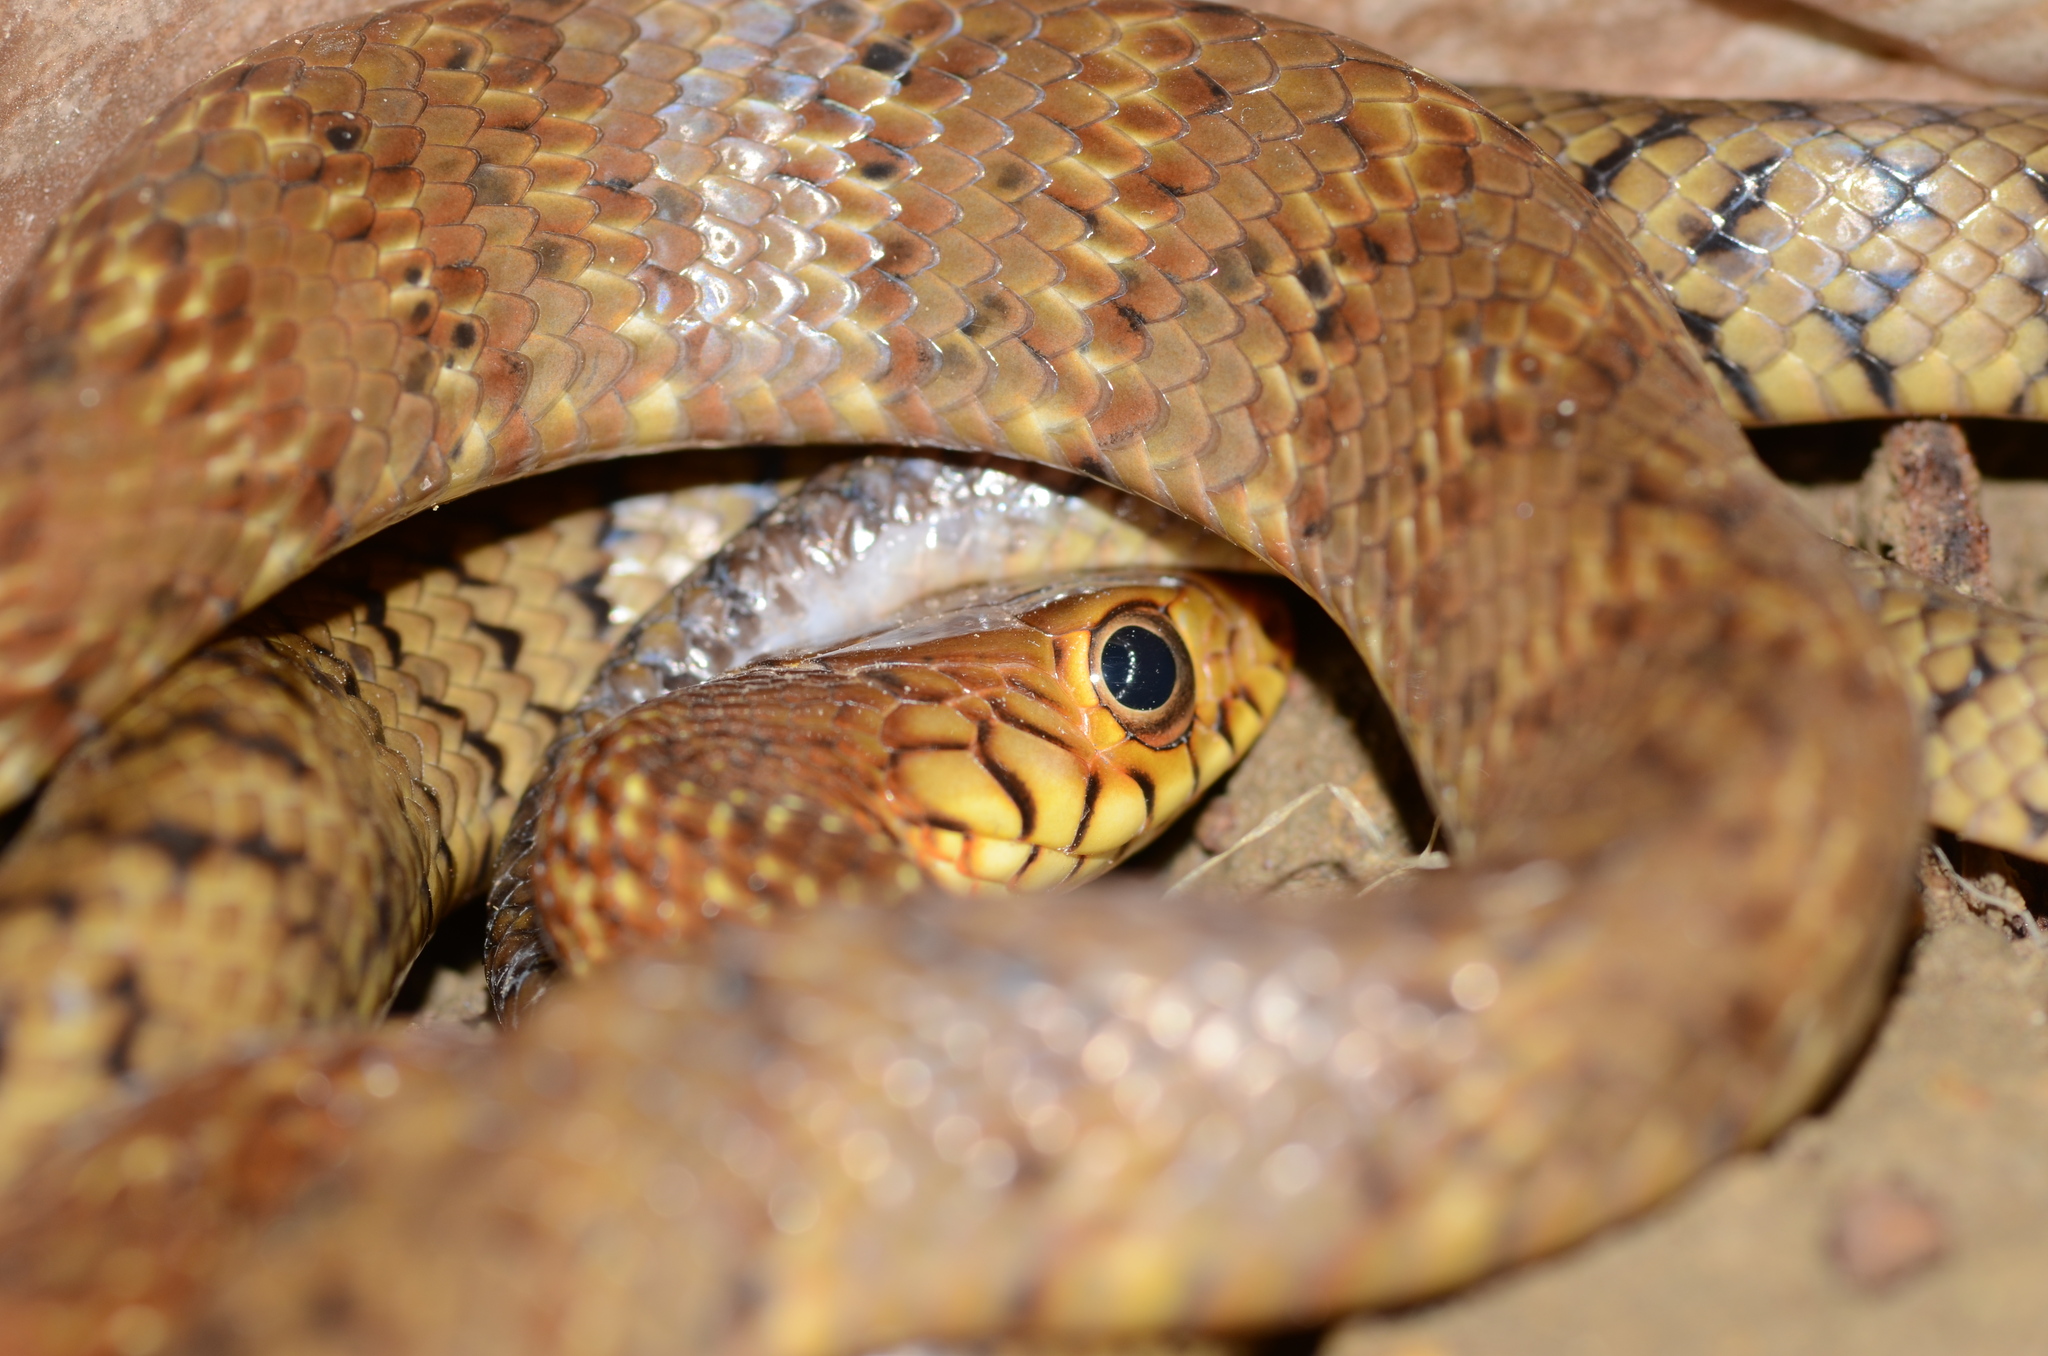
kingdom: Animalia
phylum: Chordata
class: Squamata
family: Colubridae
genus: Ptyas
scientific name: Ptyas mucosa
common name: Oriental ratsnake
